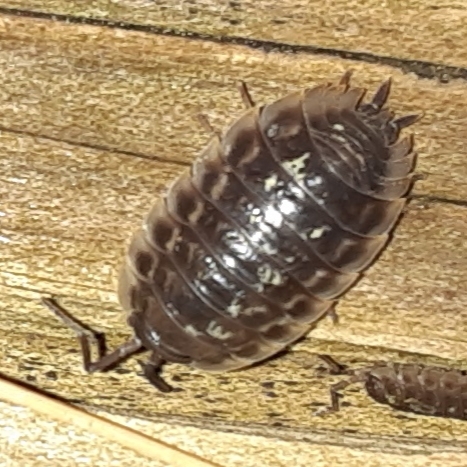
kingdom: Animalia
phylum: Arthropoda
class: Malacostraca
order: Isopoda
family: Oniscidae
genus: Oniscus
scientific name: Oniscus asellus
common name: Common shiny woodlouse
